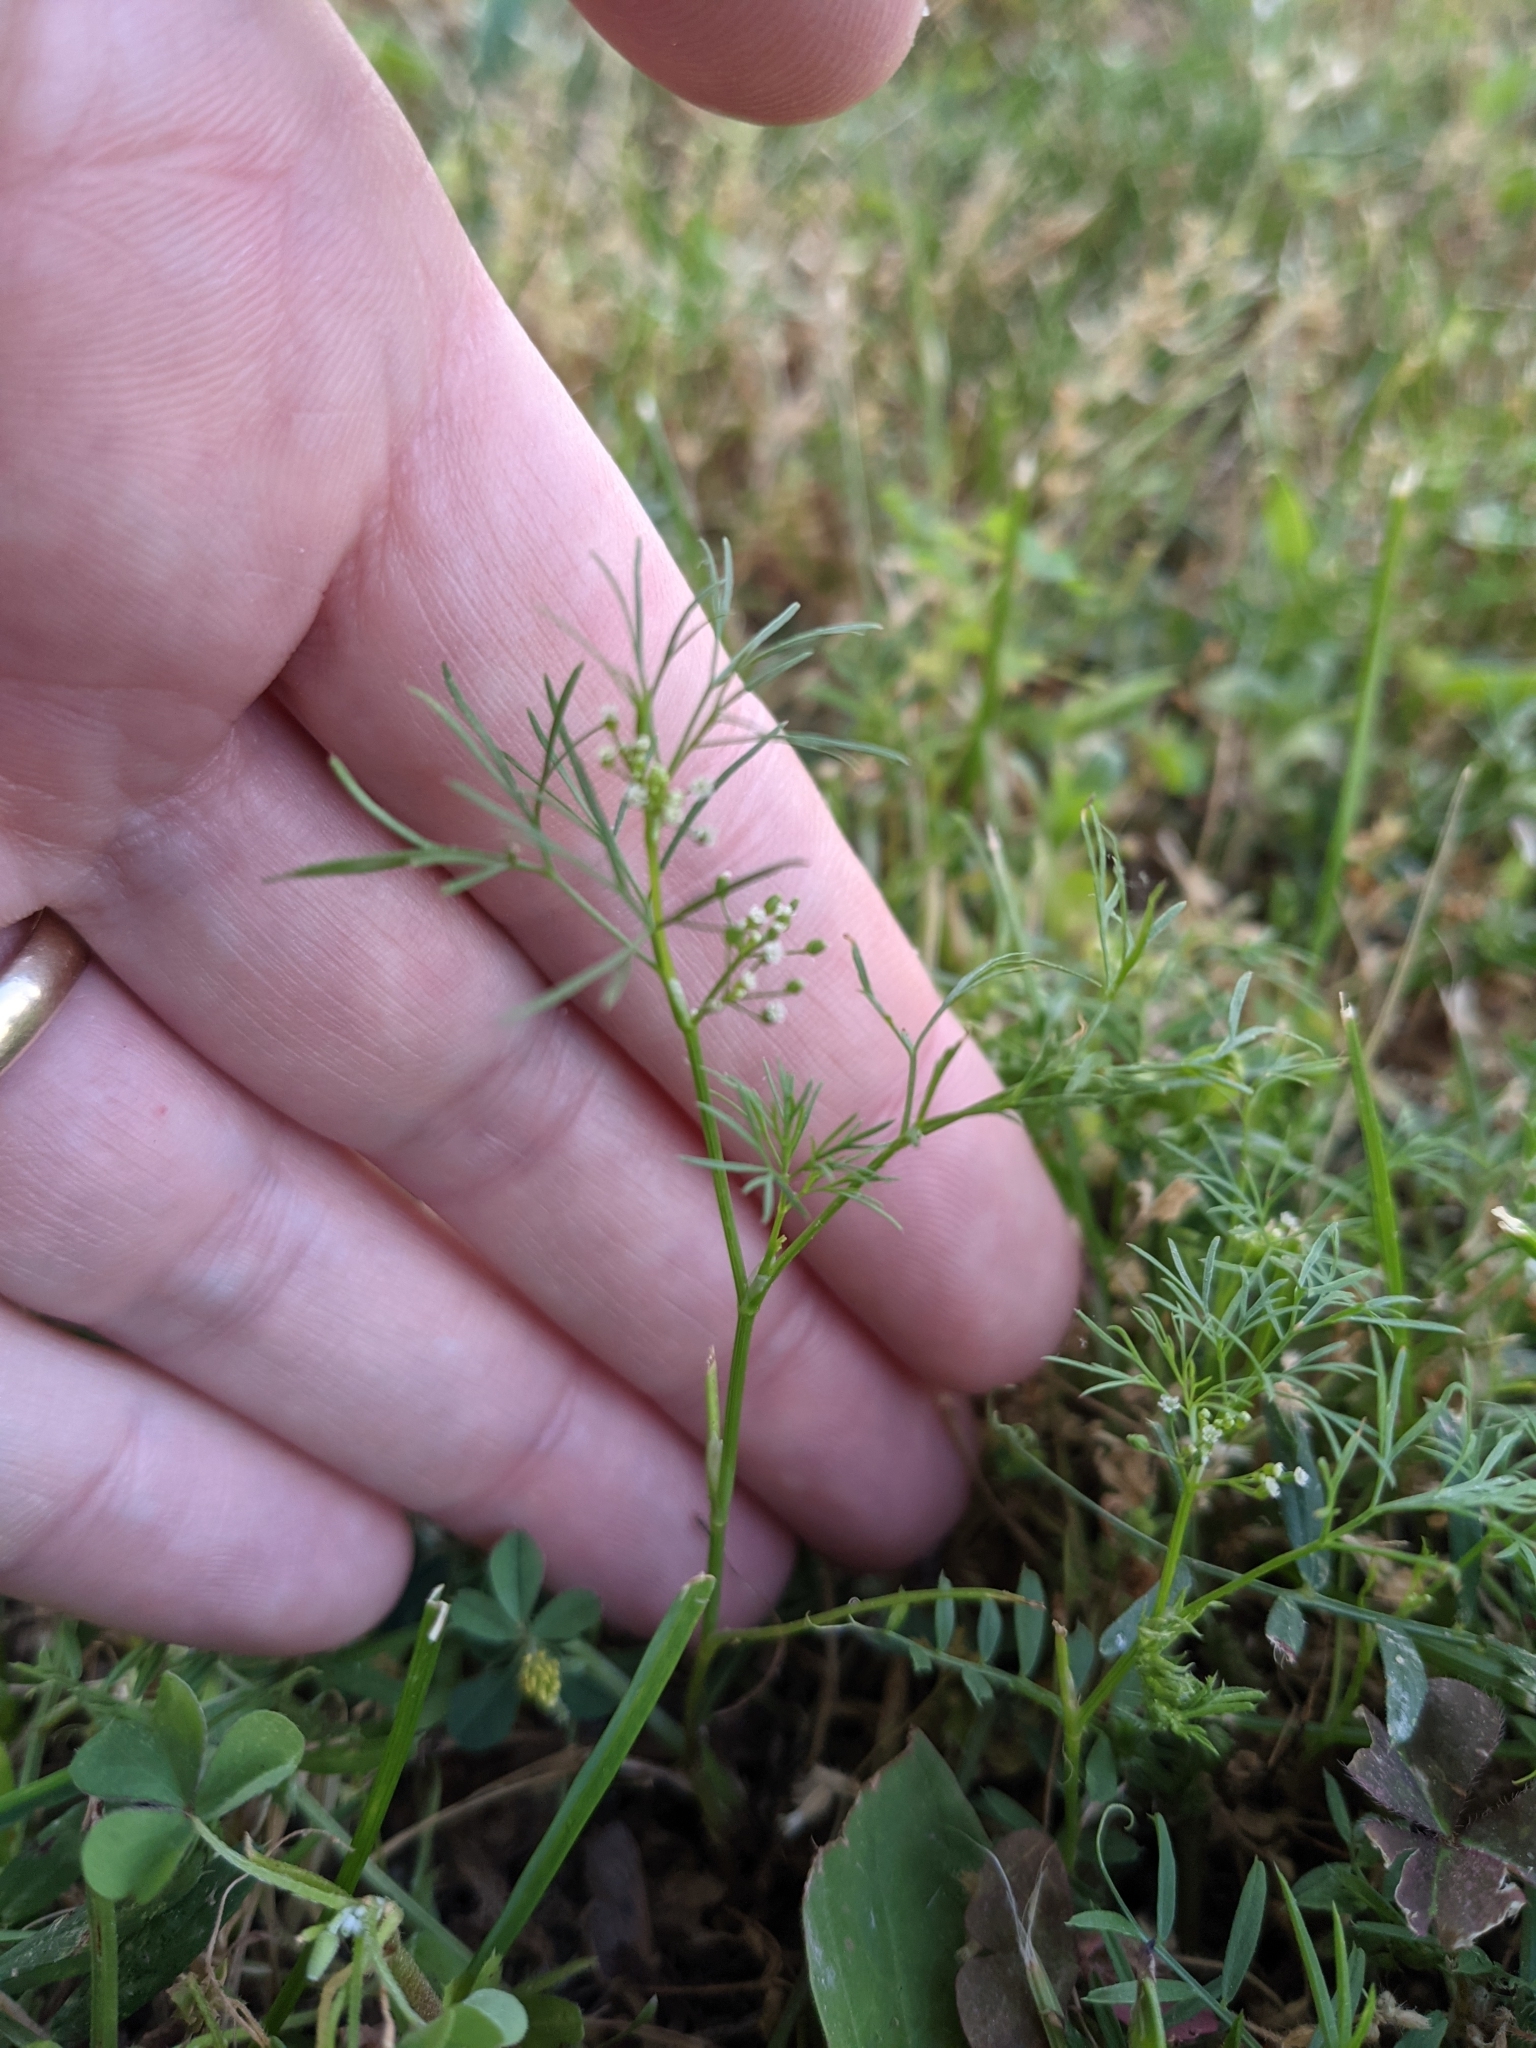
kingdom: Plantae
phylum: Tracheophyta
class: Magnoliopsida
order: Apiales
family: Apiaceae
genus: Cyclospermum
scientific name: Cyclospermum leptophyllum
